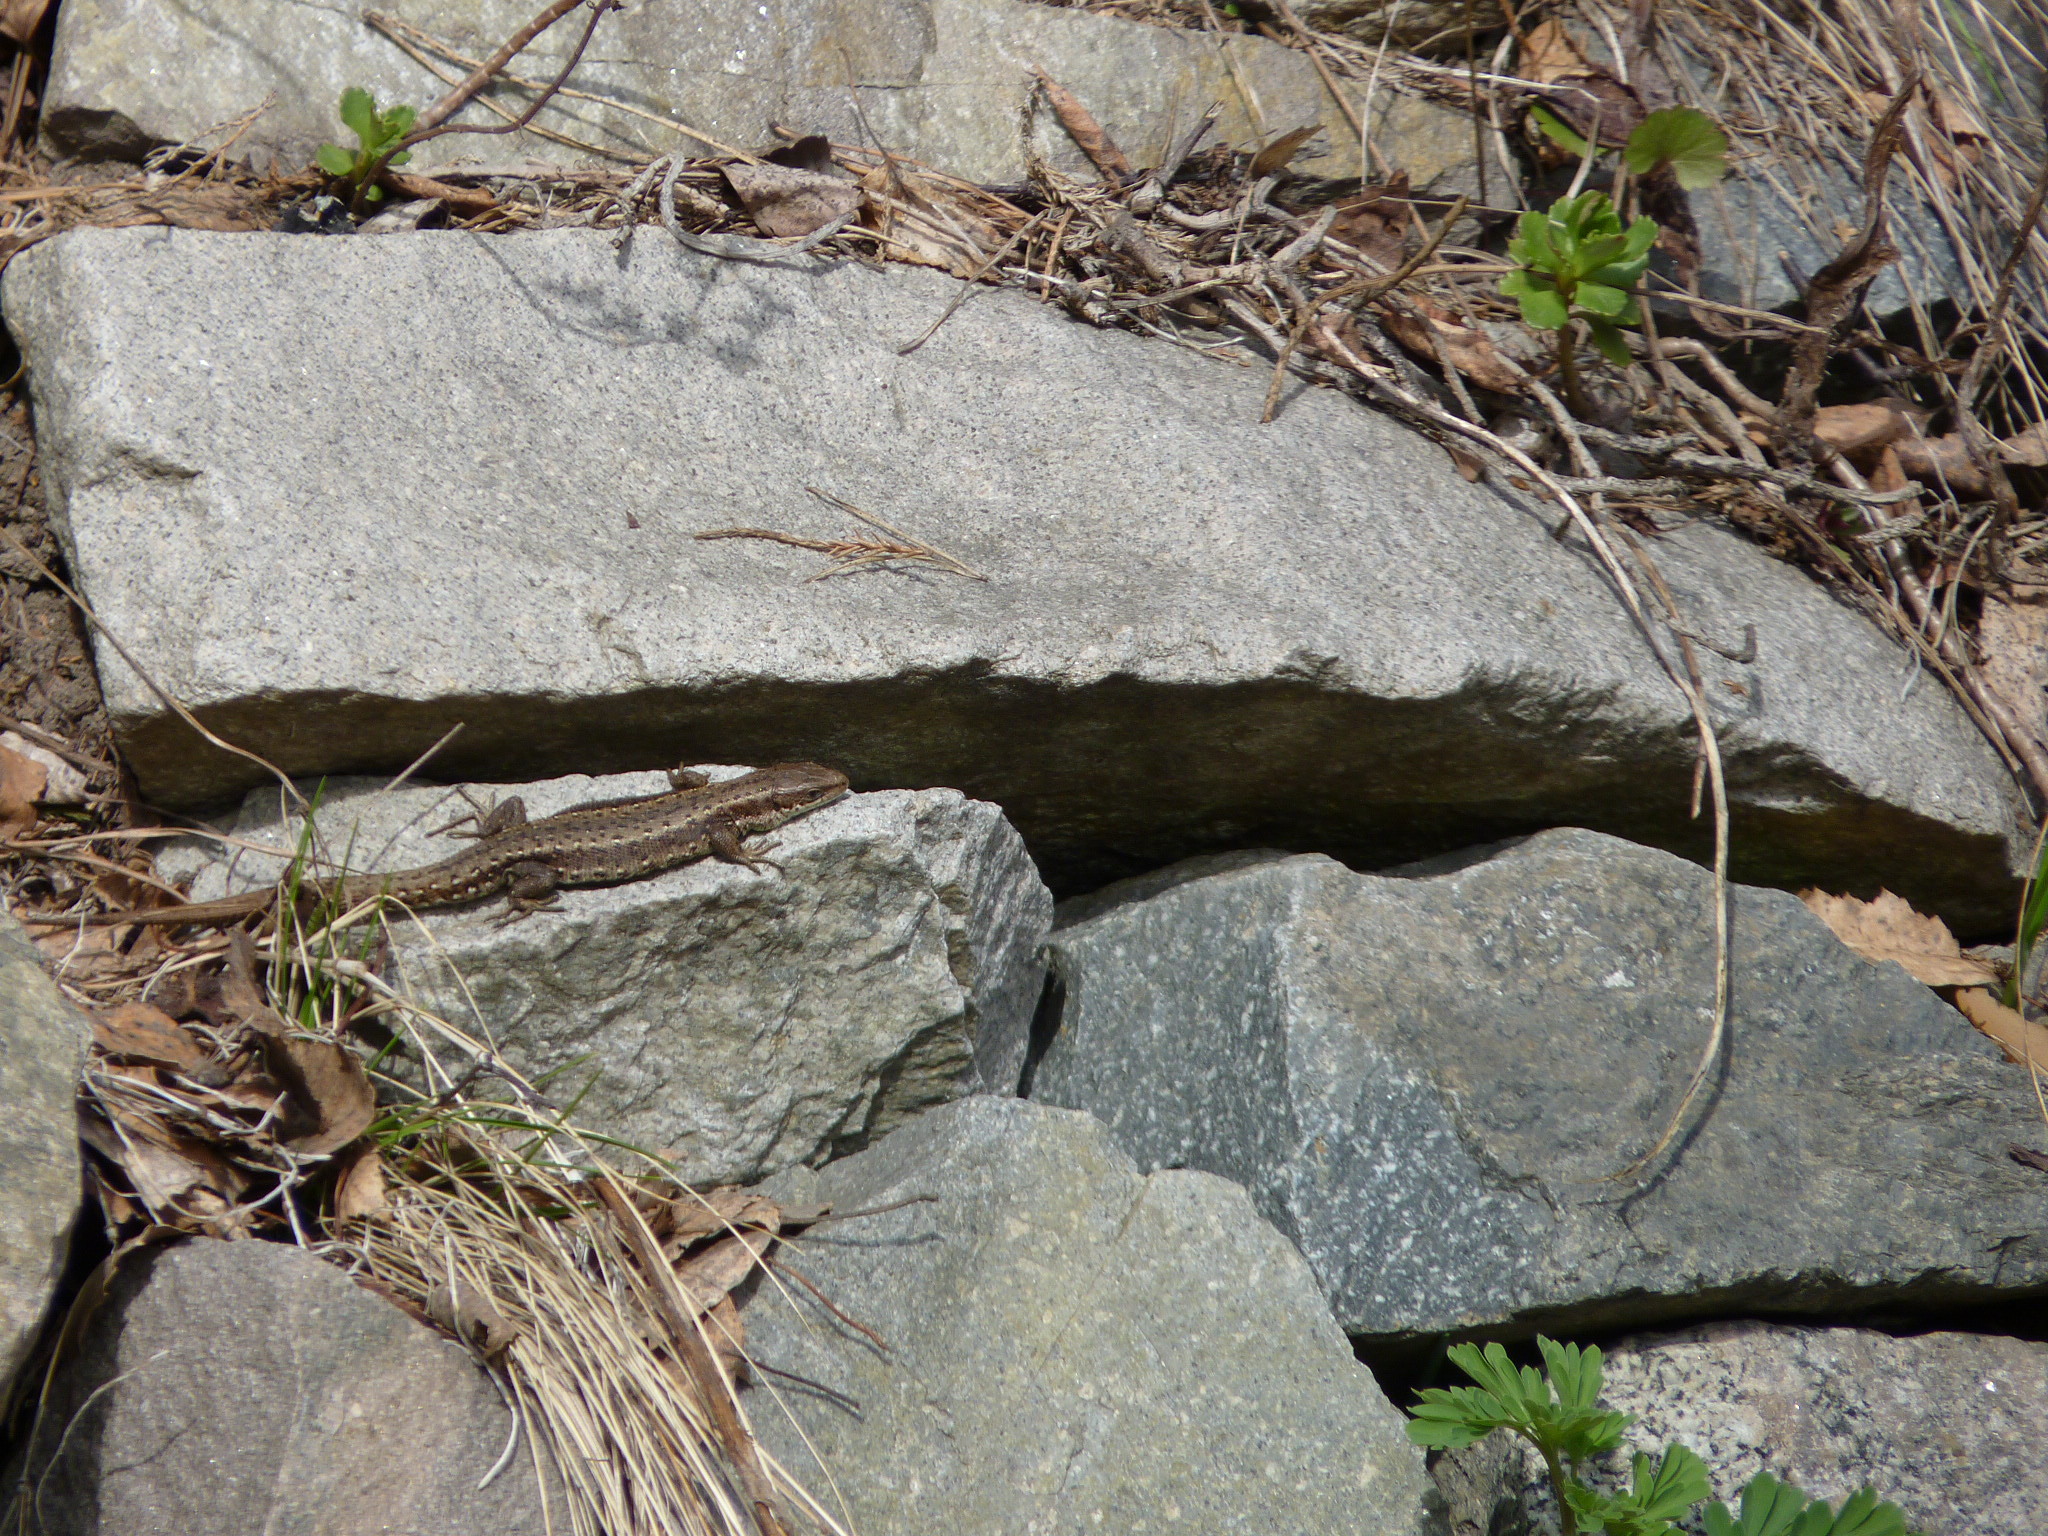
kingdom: Animalia
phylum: Chordata
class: Squamata
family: Lacertidae
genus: Zootoca
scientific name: Zootoca vivipara
